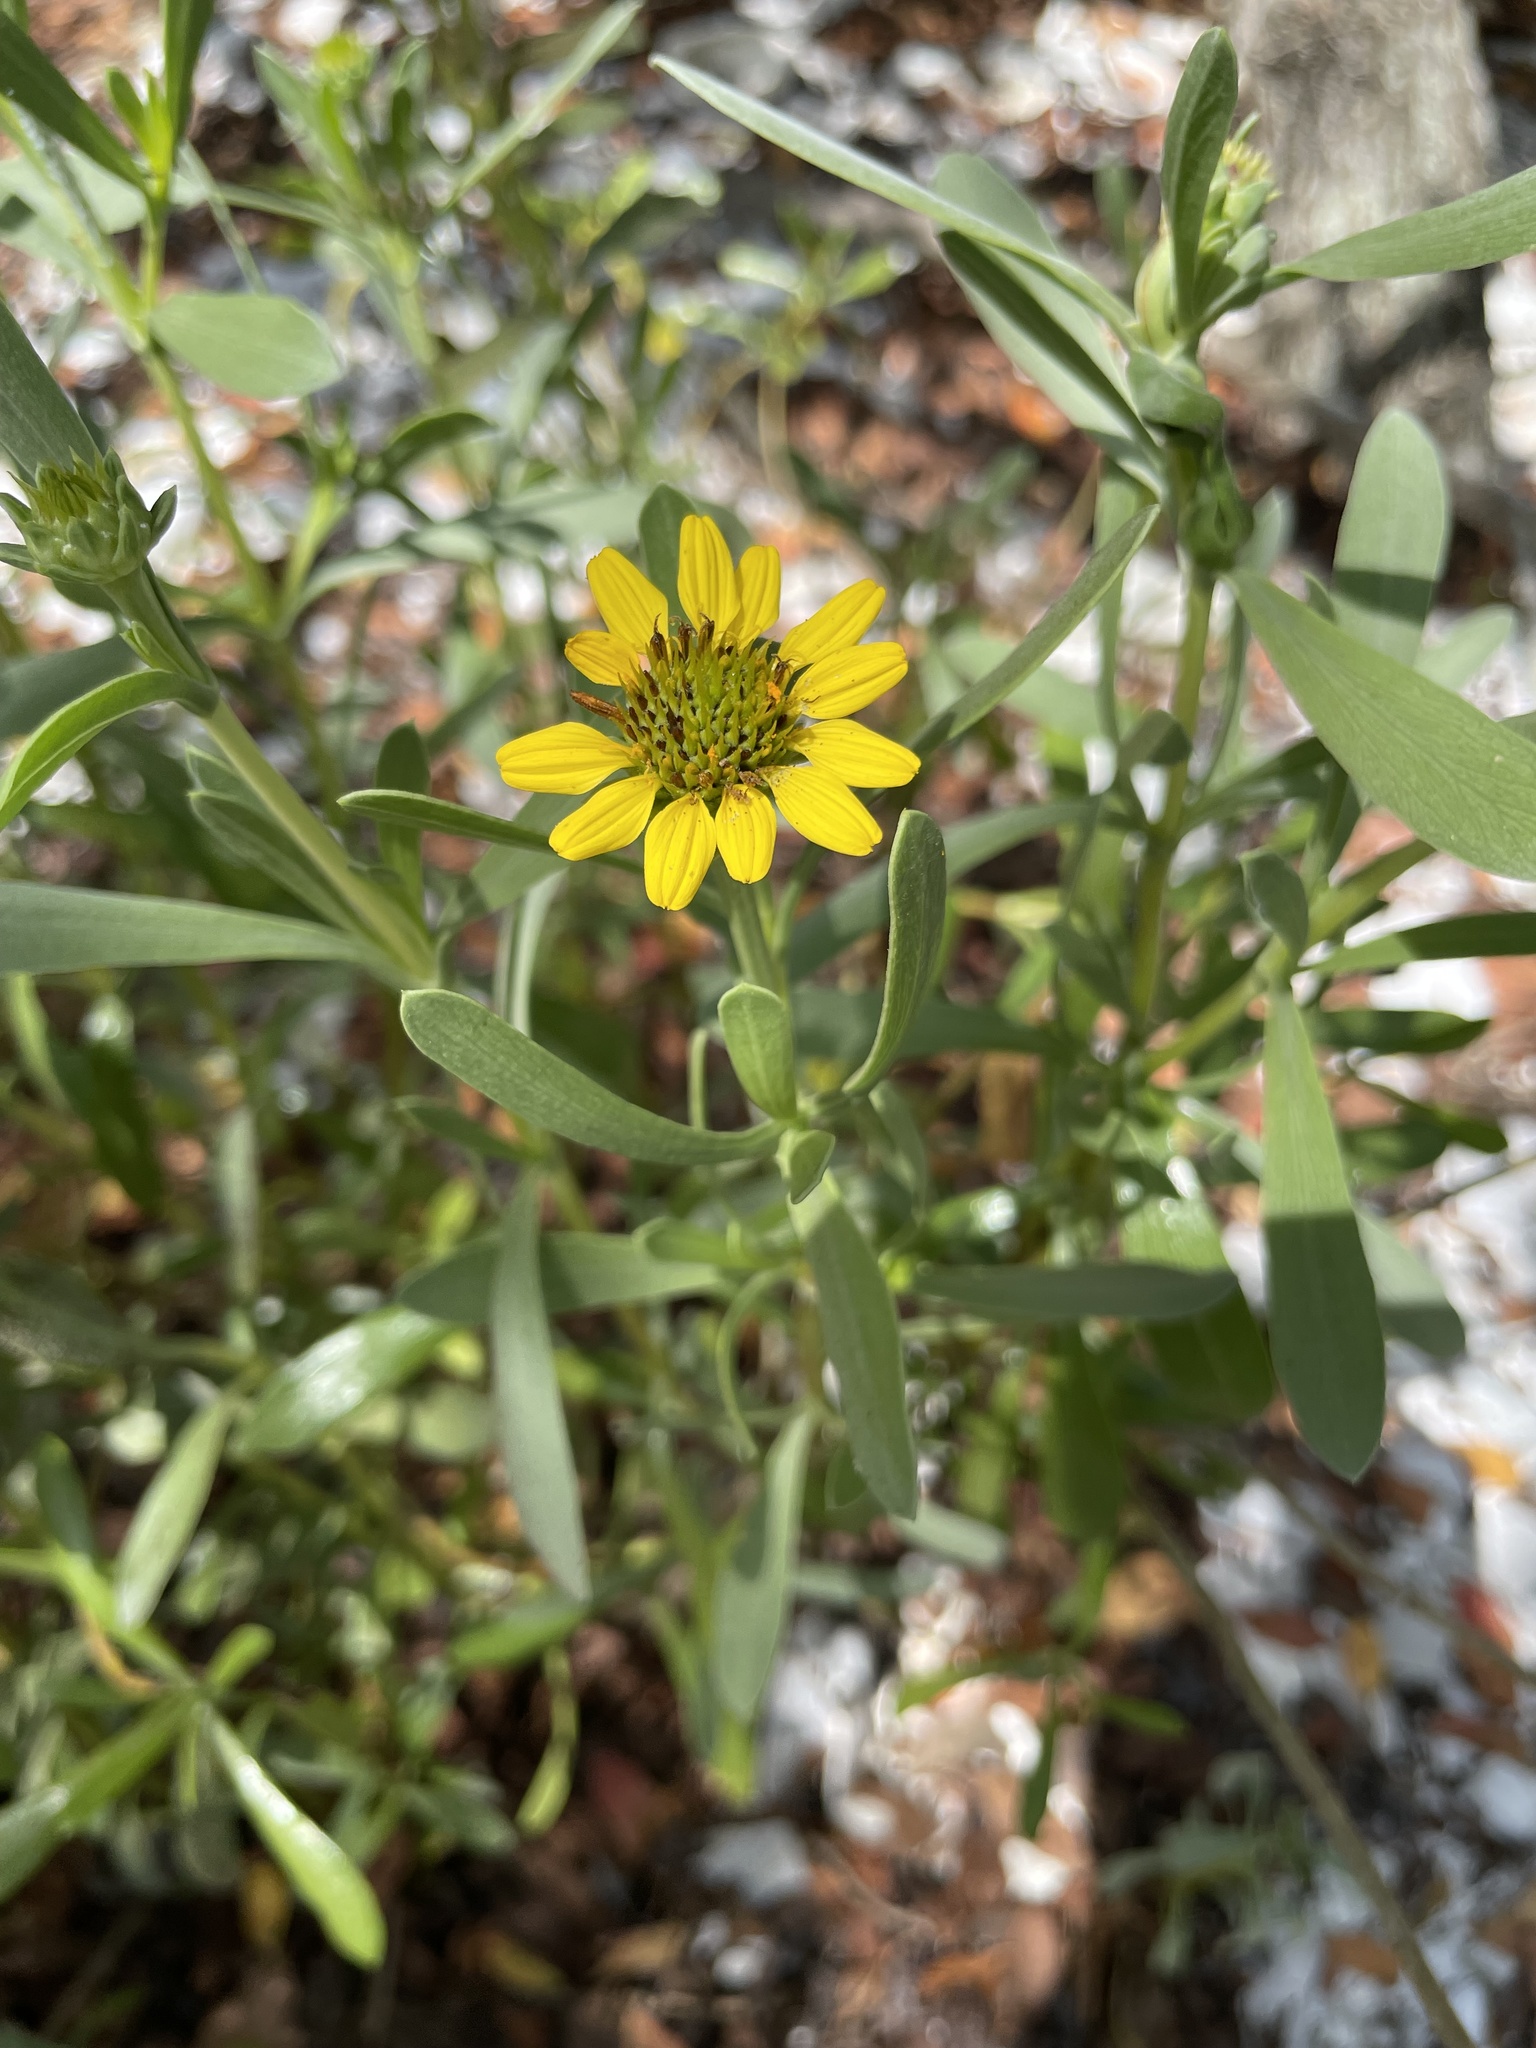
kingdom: Plantae
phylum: Tracheophyta
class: Magnoliopsida
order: Asterales
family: Asteraceae
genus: Borrichia
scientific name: Borrichia frutescens
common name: Sea oxeye
